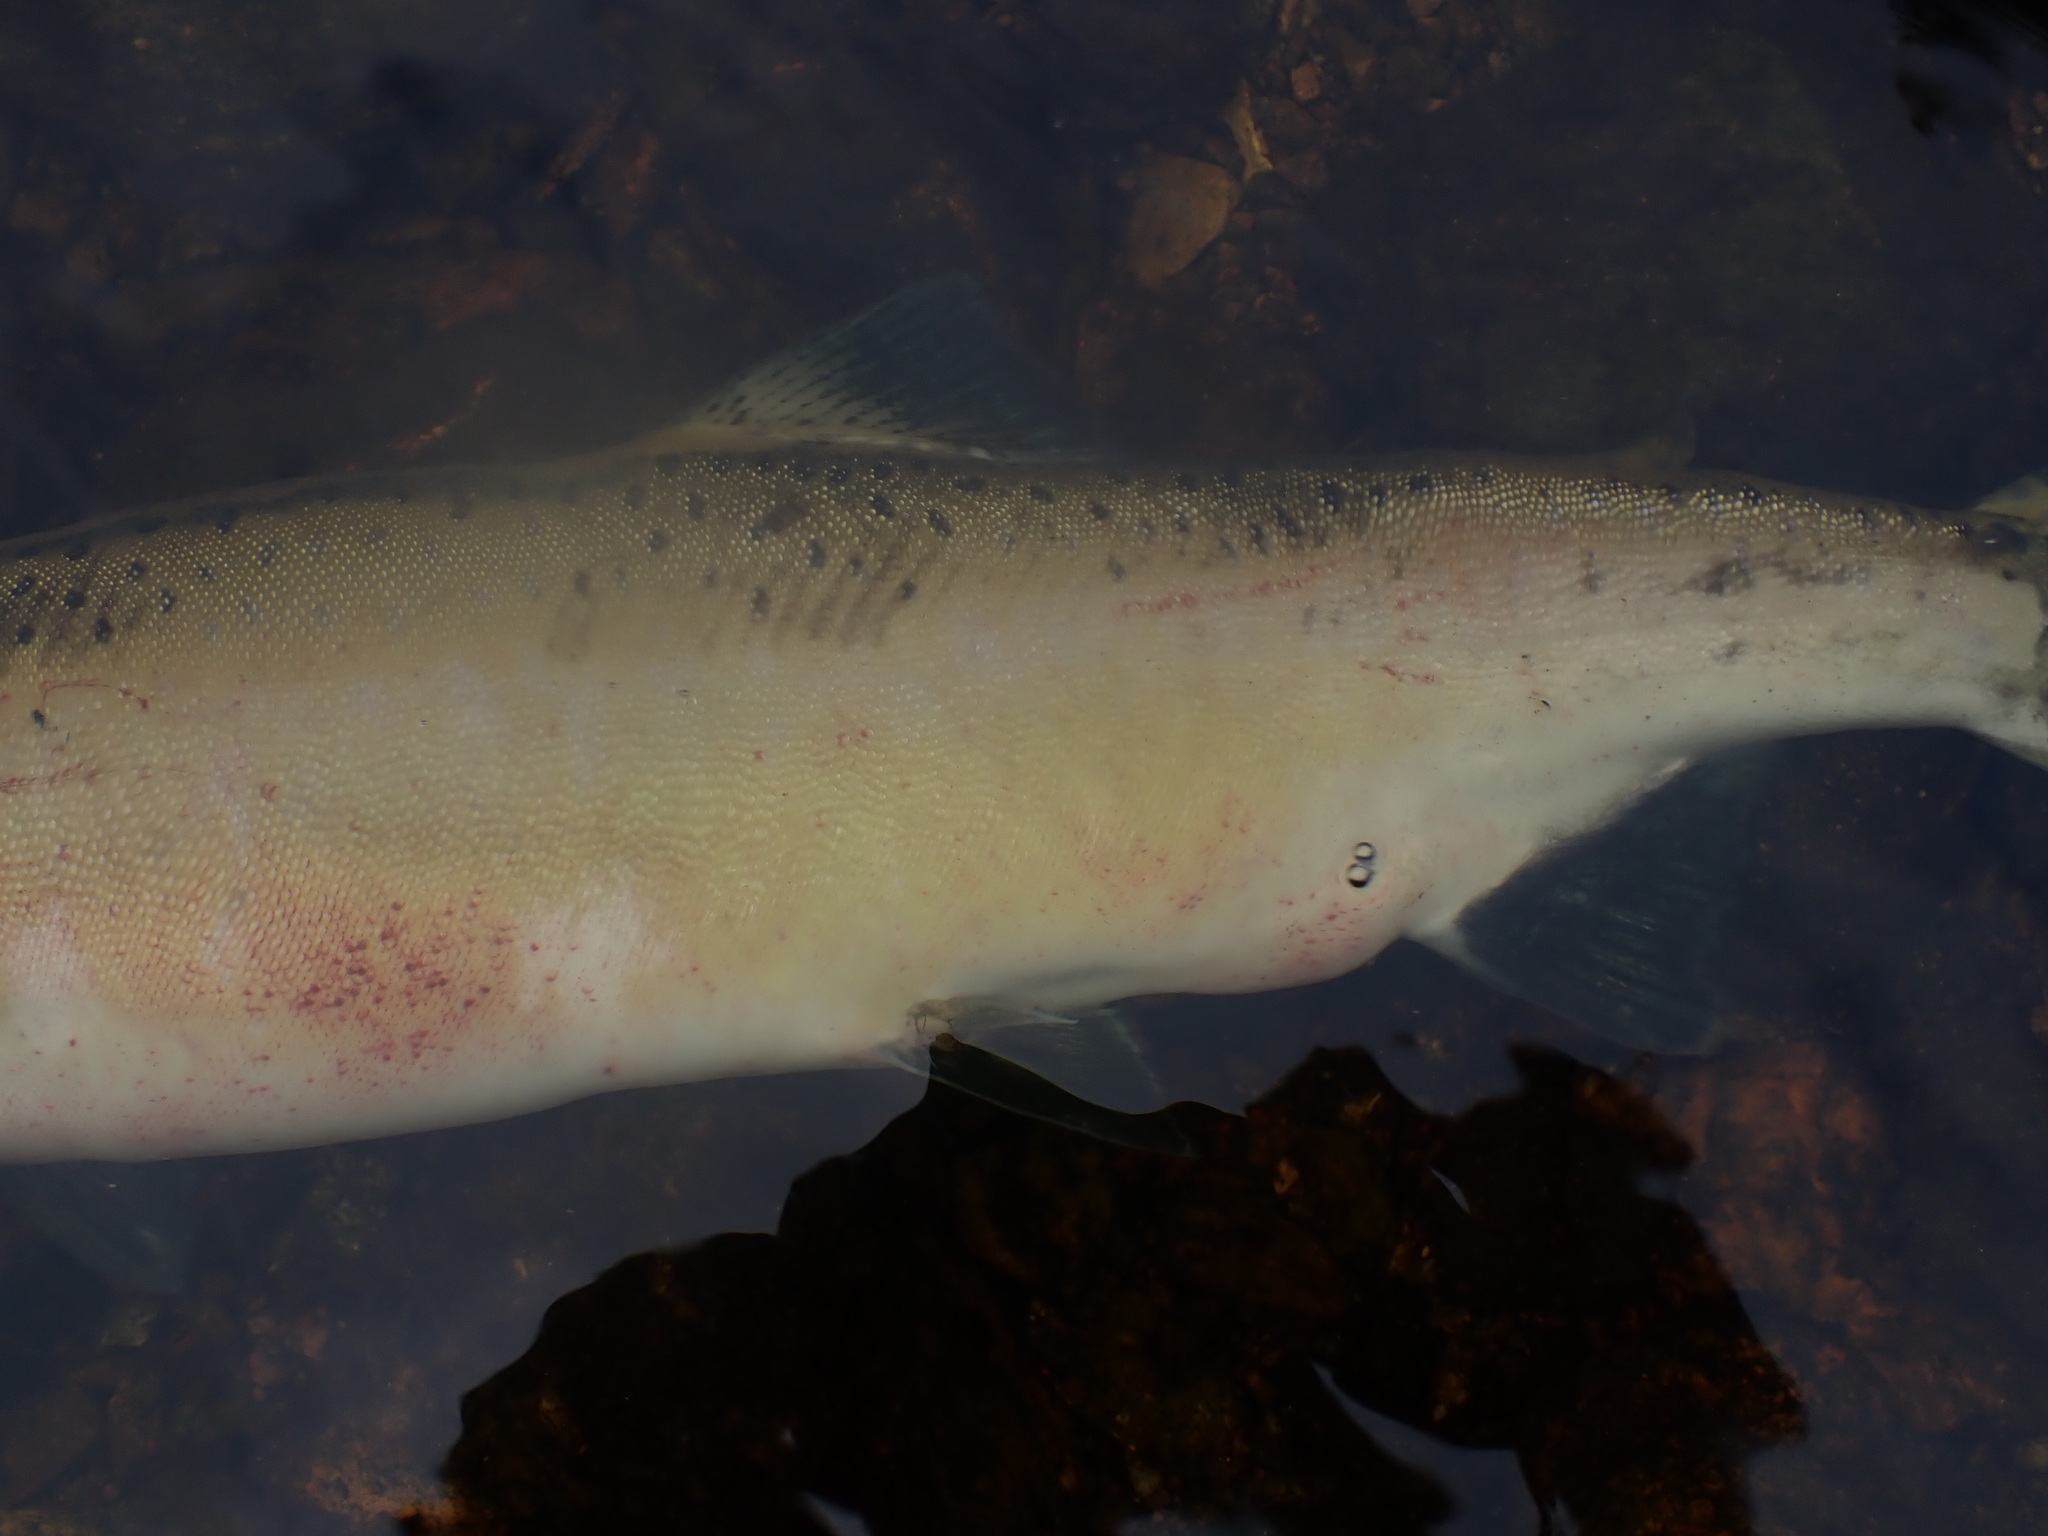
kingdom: Animalia
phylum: Chordata
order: Salmoniformes
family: Salmonidae
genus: Oncorhynchus
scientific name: Oncorhynchus gorbuscha
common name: Humpback salmon
